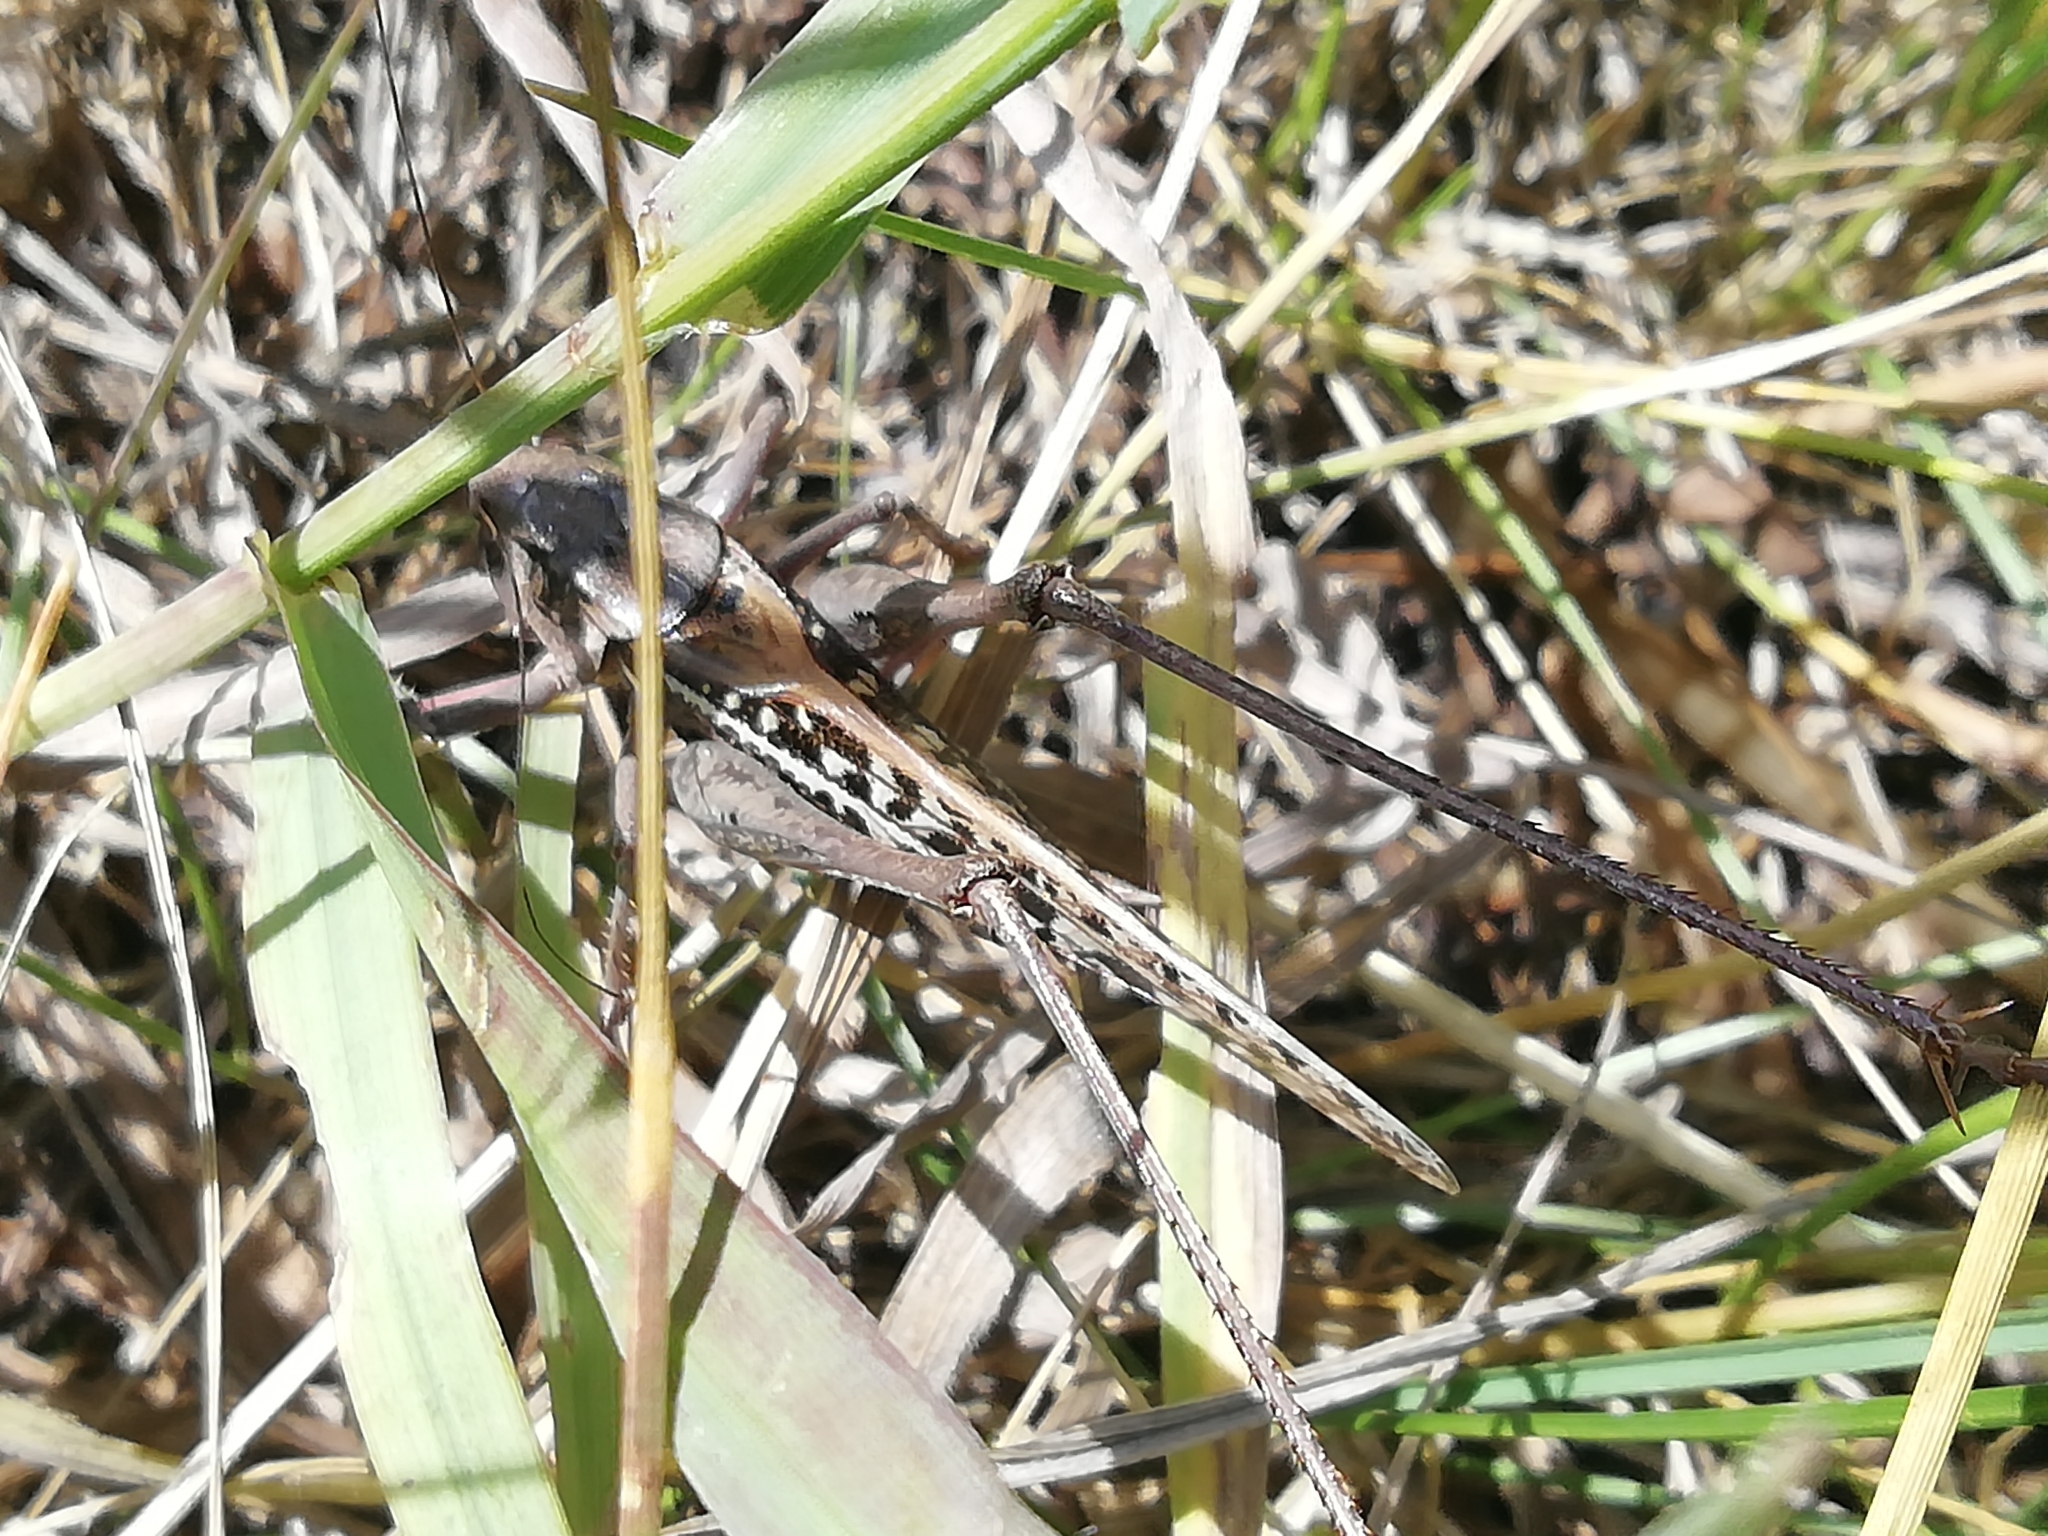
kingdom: Animalia
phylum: Arthropoda
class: Insecta
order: Orthoptera
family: Tettigoniidae
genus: Decticus
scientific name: Decticus verrucivorus
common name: Wart-biter
